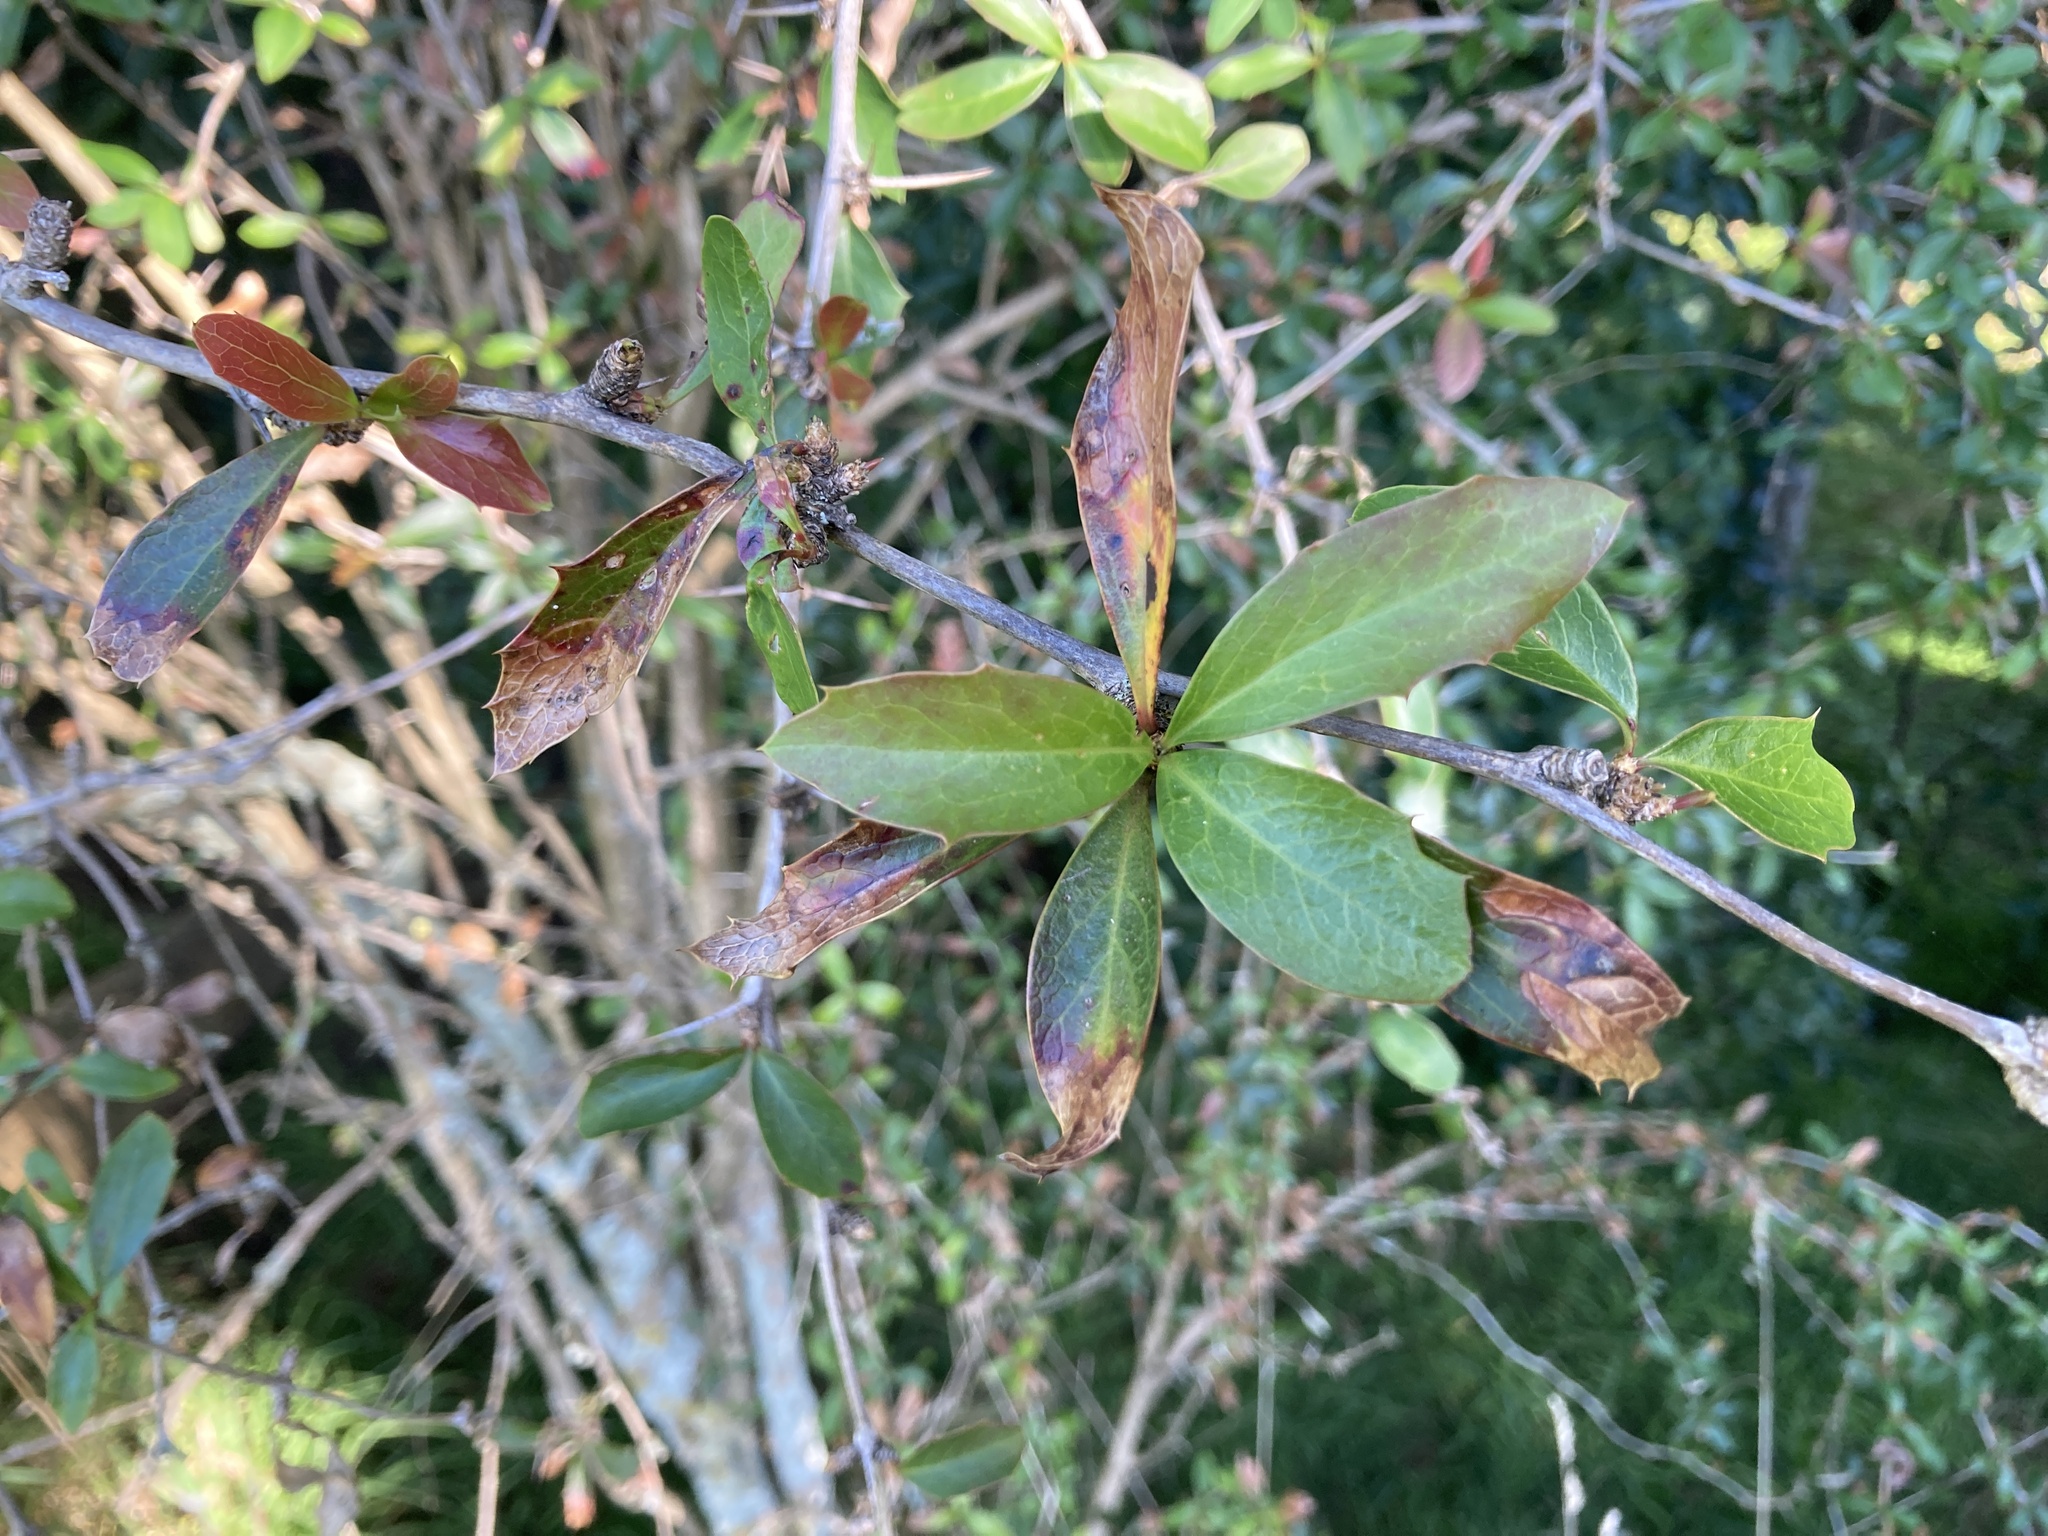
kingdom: Plantae
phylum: Tracheophyta
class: Magnoliopsida
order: Ranunculales
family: Berberidaceae
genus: Berberis
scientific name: Berberis glaucocarpa
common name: Great barberry
